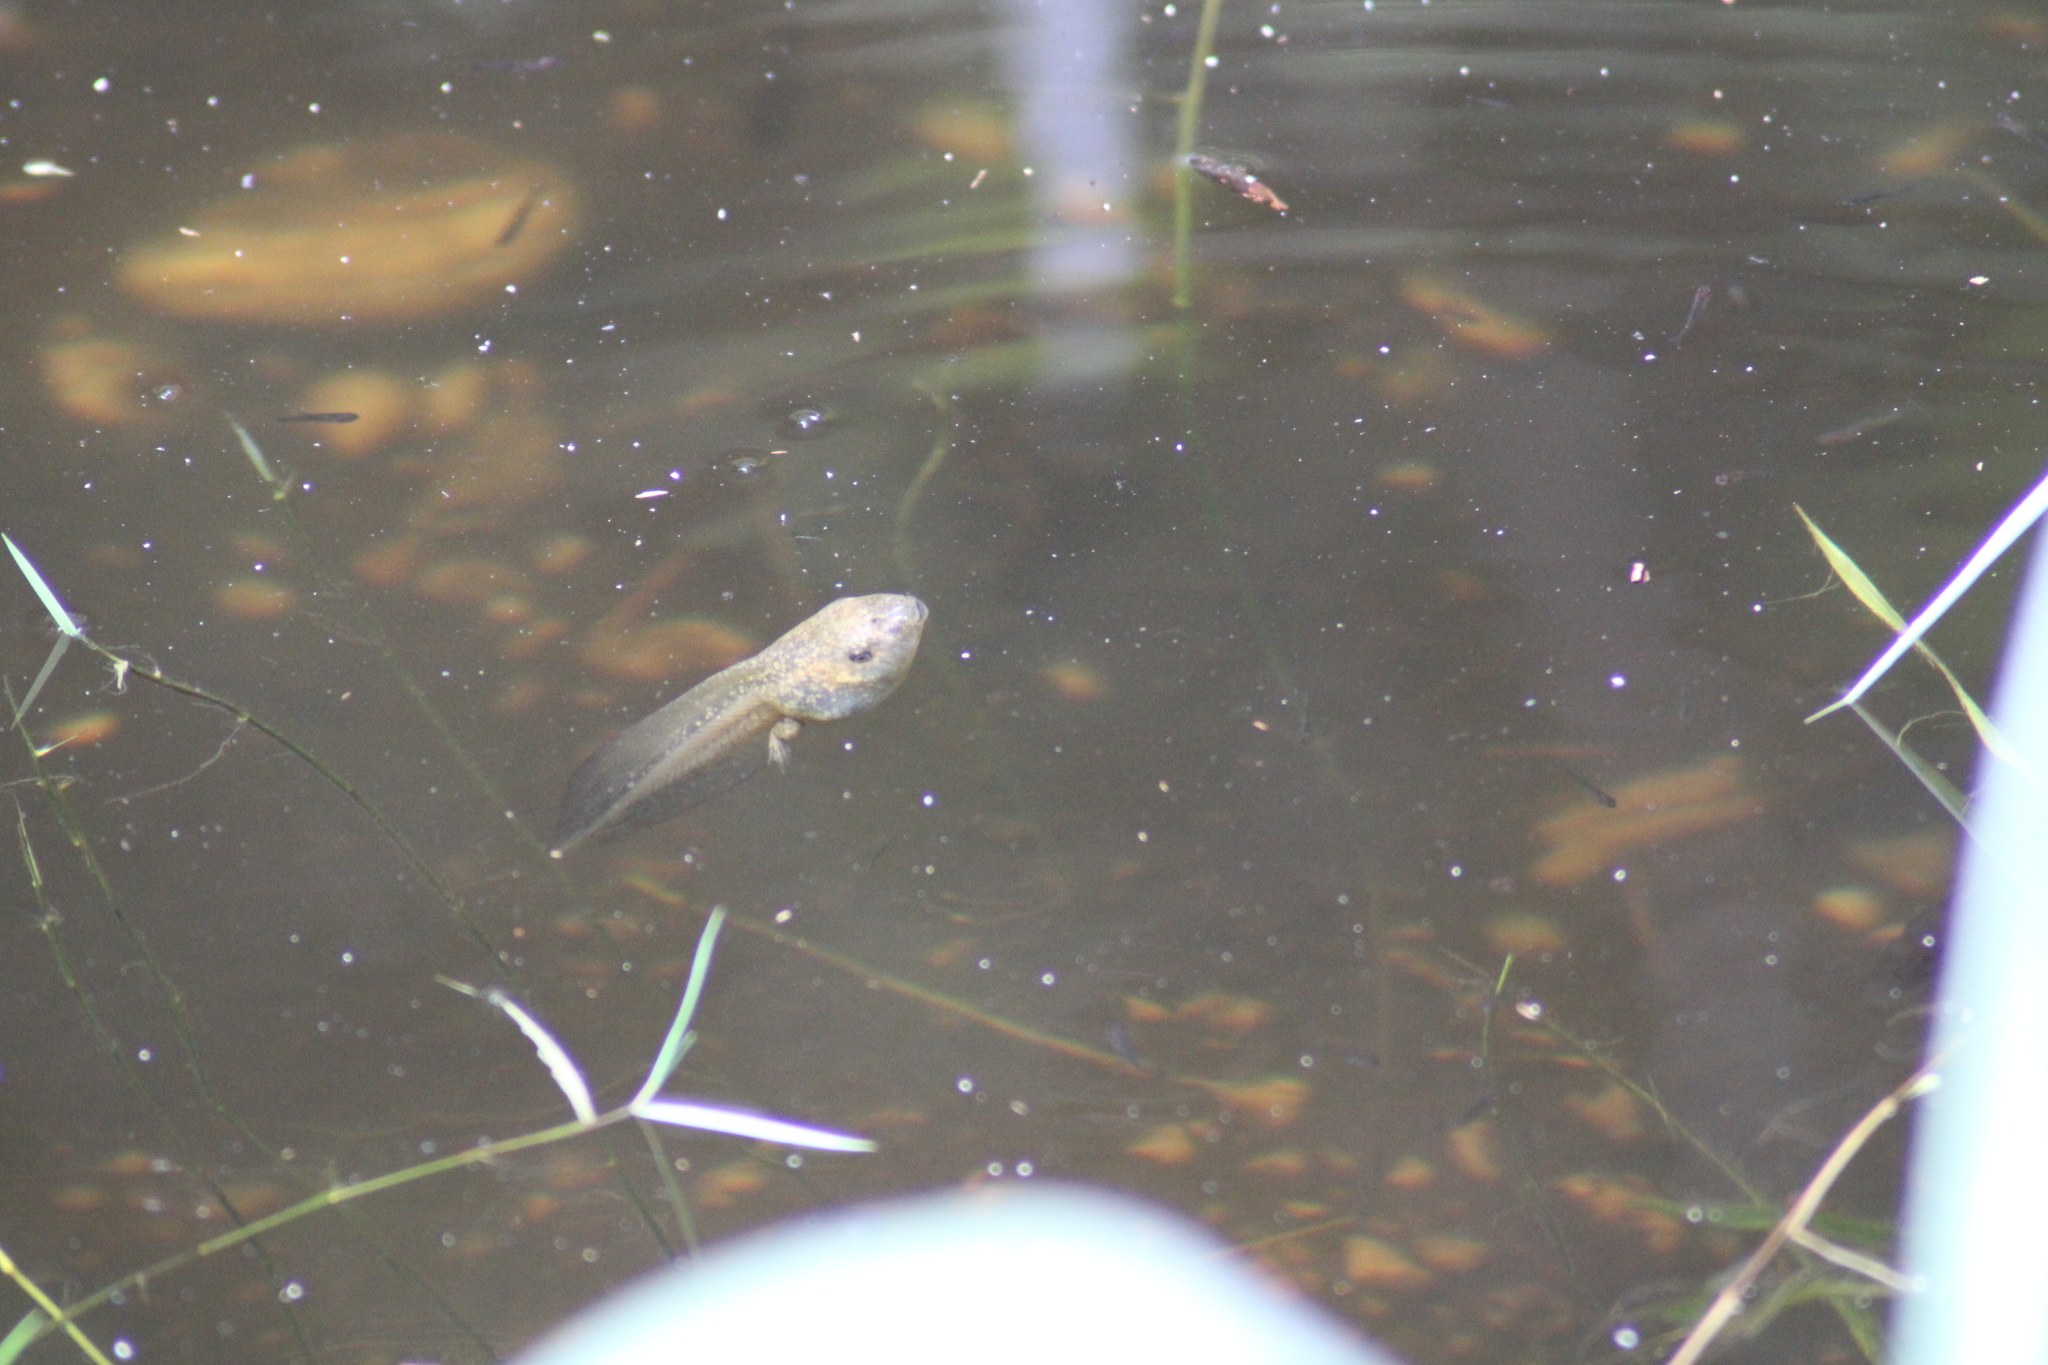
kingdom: Animalia
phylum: Chordata
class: Amphibia
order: Anura
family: Pelobatidae
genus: Pelobates
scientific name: Pelobates fuscus
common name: Common eurasian spadefoot toad
